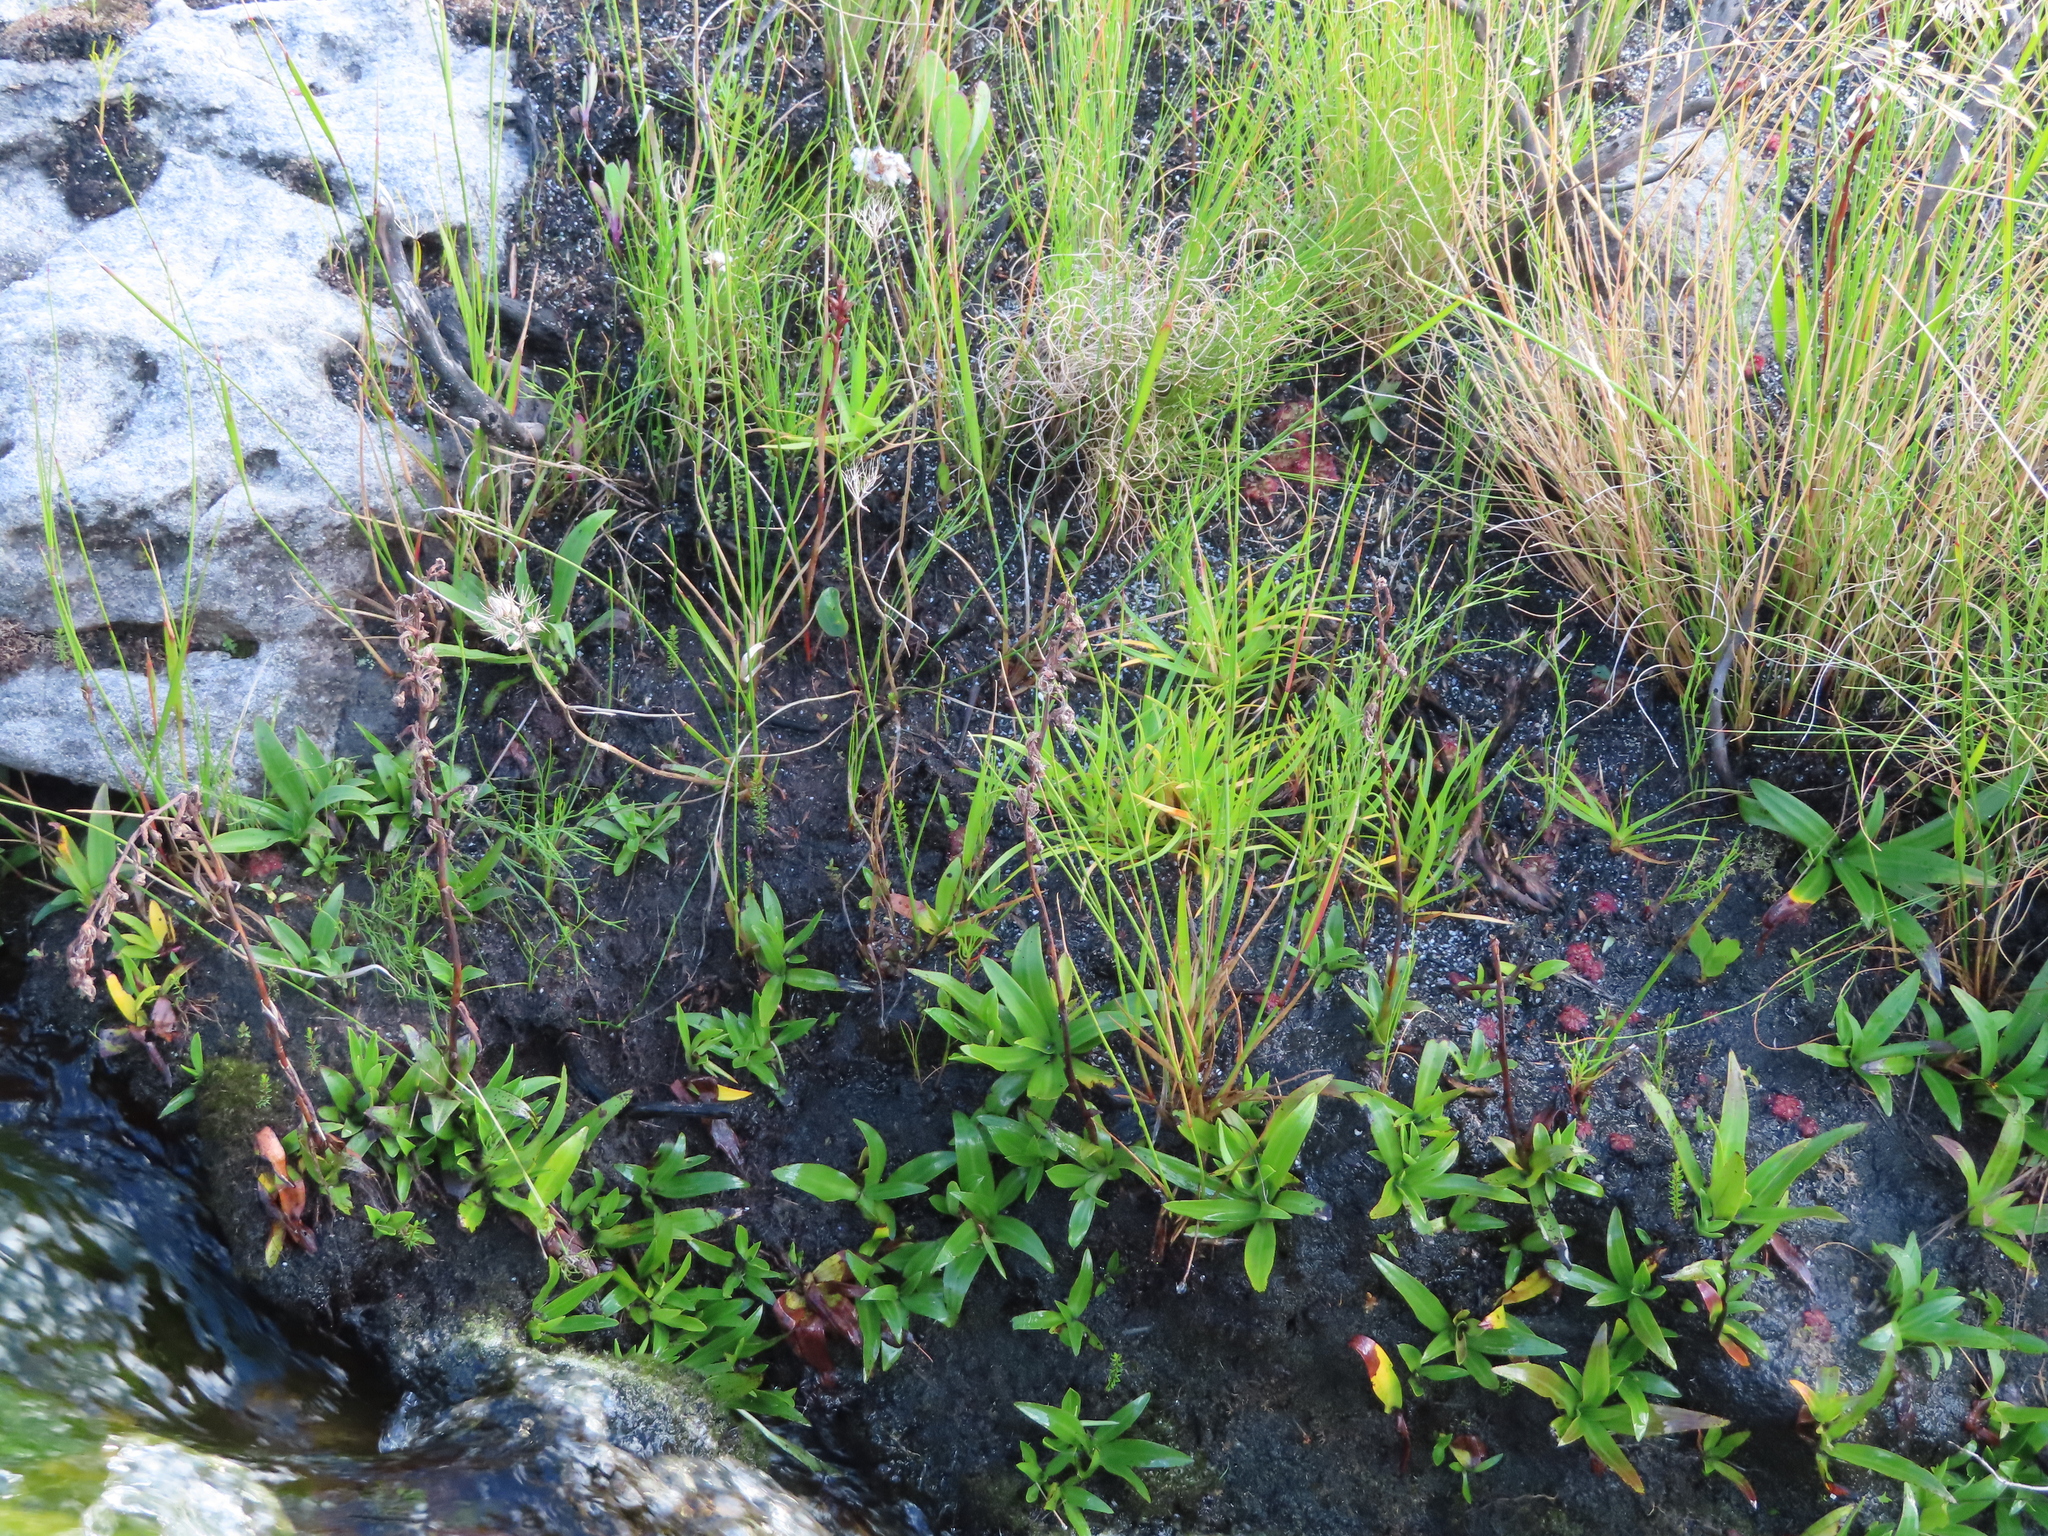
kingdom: Plantae
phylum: Tracheophyta
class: Liliopsida
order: Asparagales
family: Orchidaceae
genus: Disa
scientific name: Disa tripetaloides
